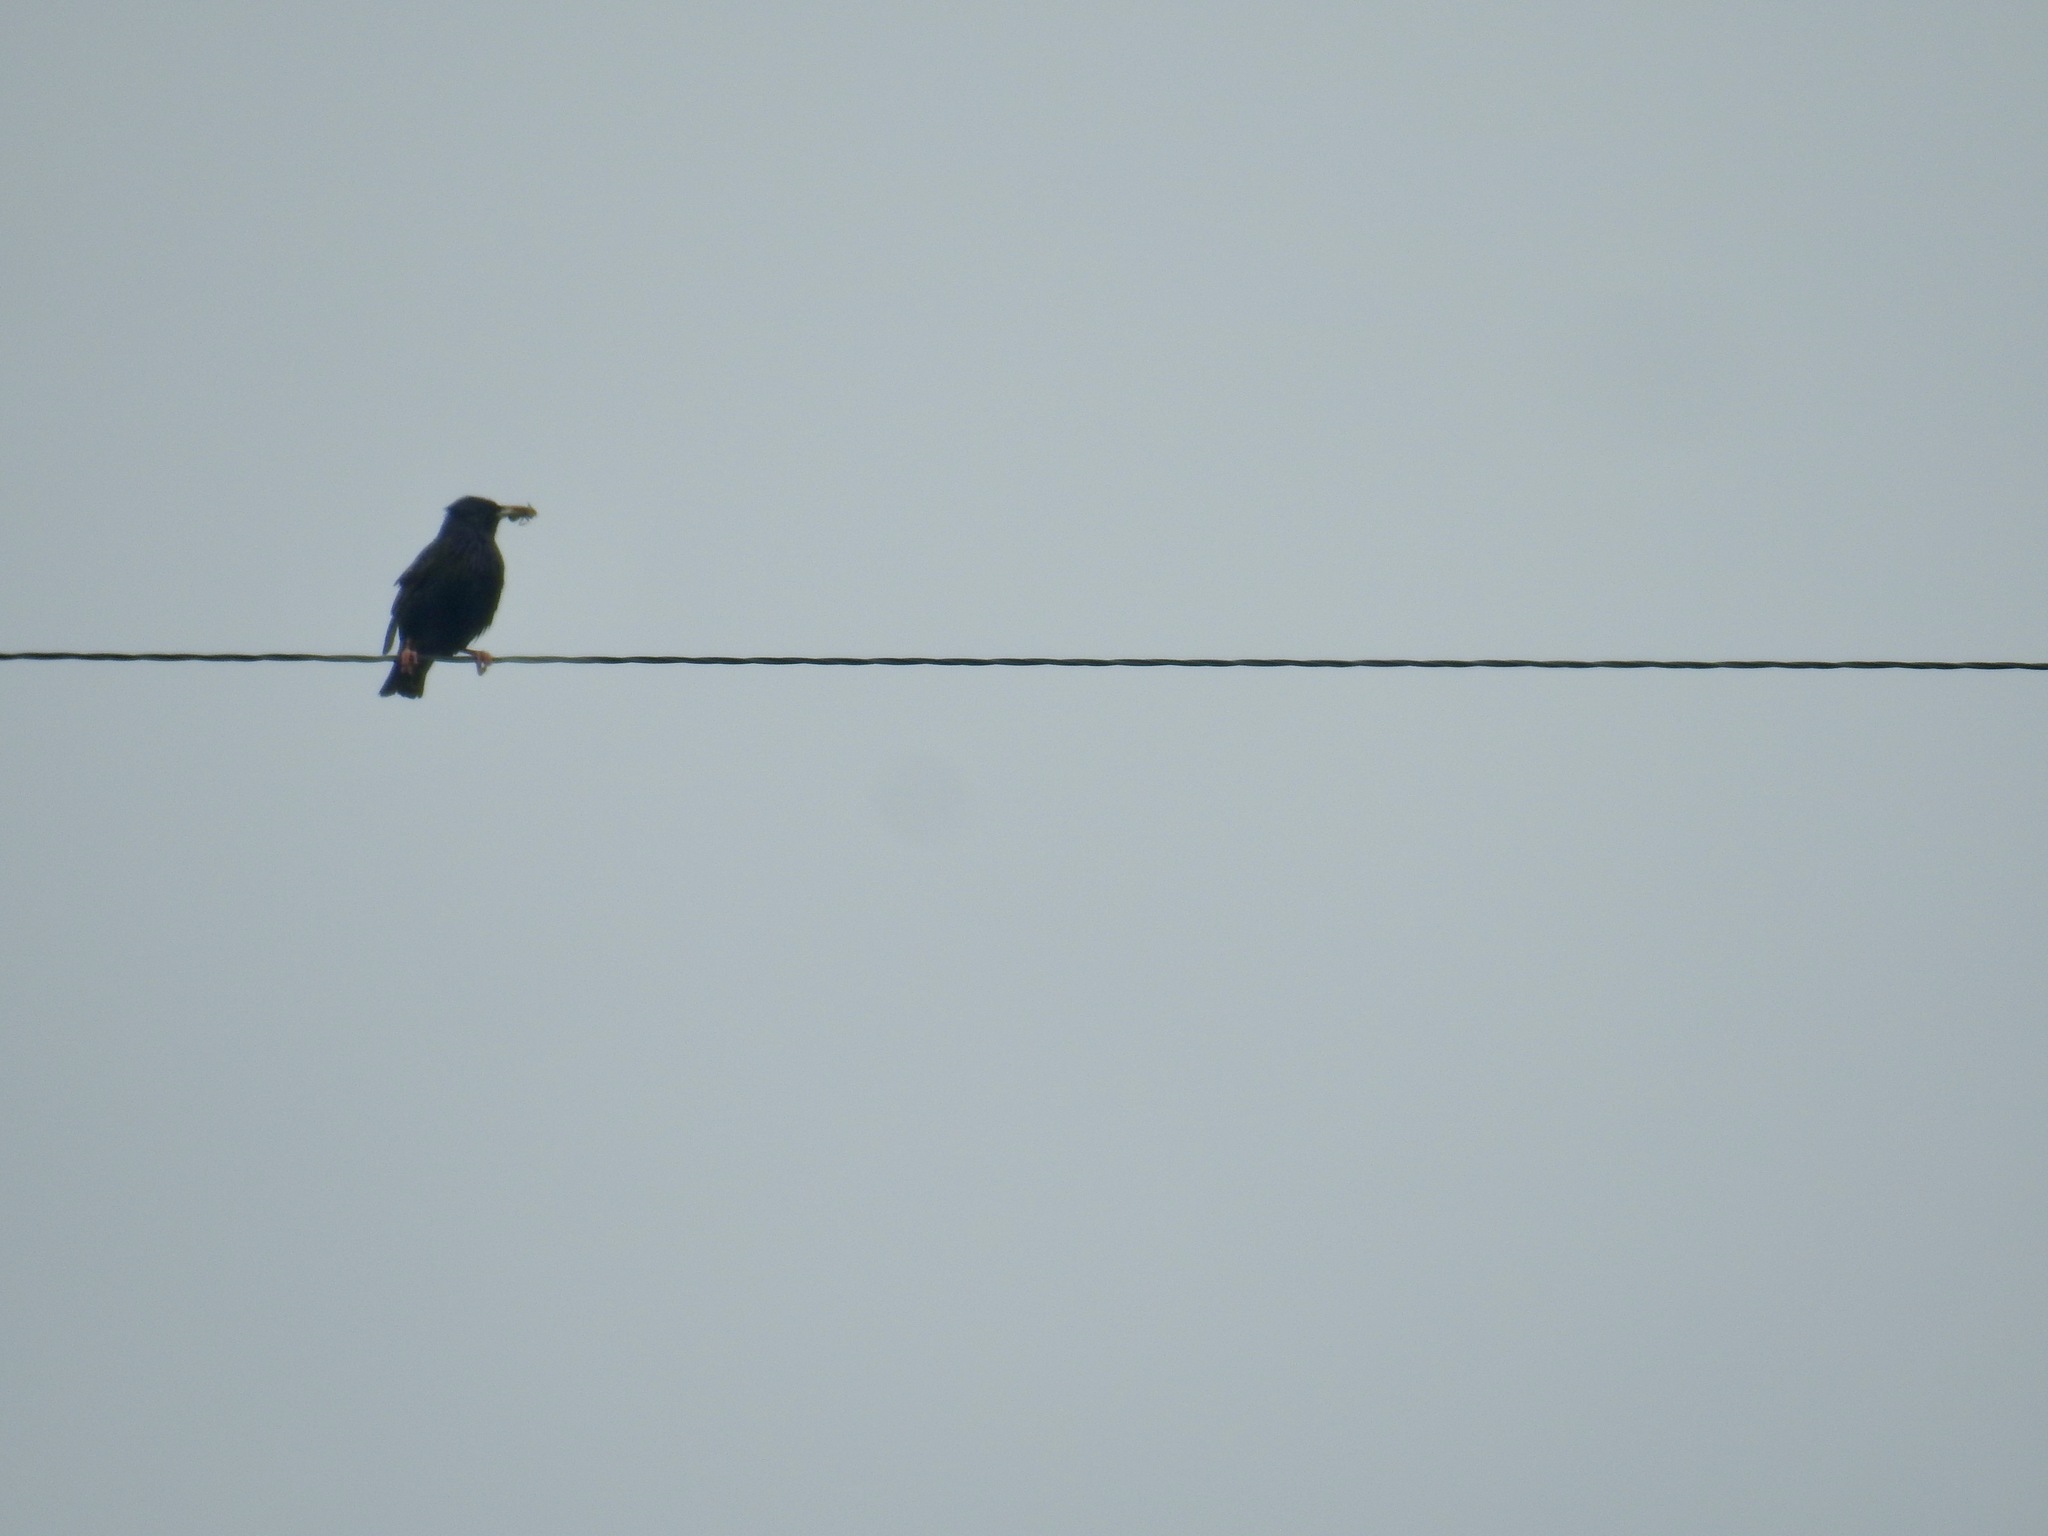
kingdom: Animalia
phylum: Chordata
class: Aves
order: Passeriformes
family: Sturnidae
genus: Sturnus
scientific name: Sturnus vulgaris
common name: Common starling
